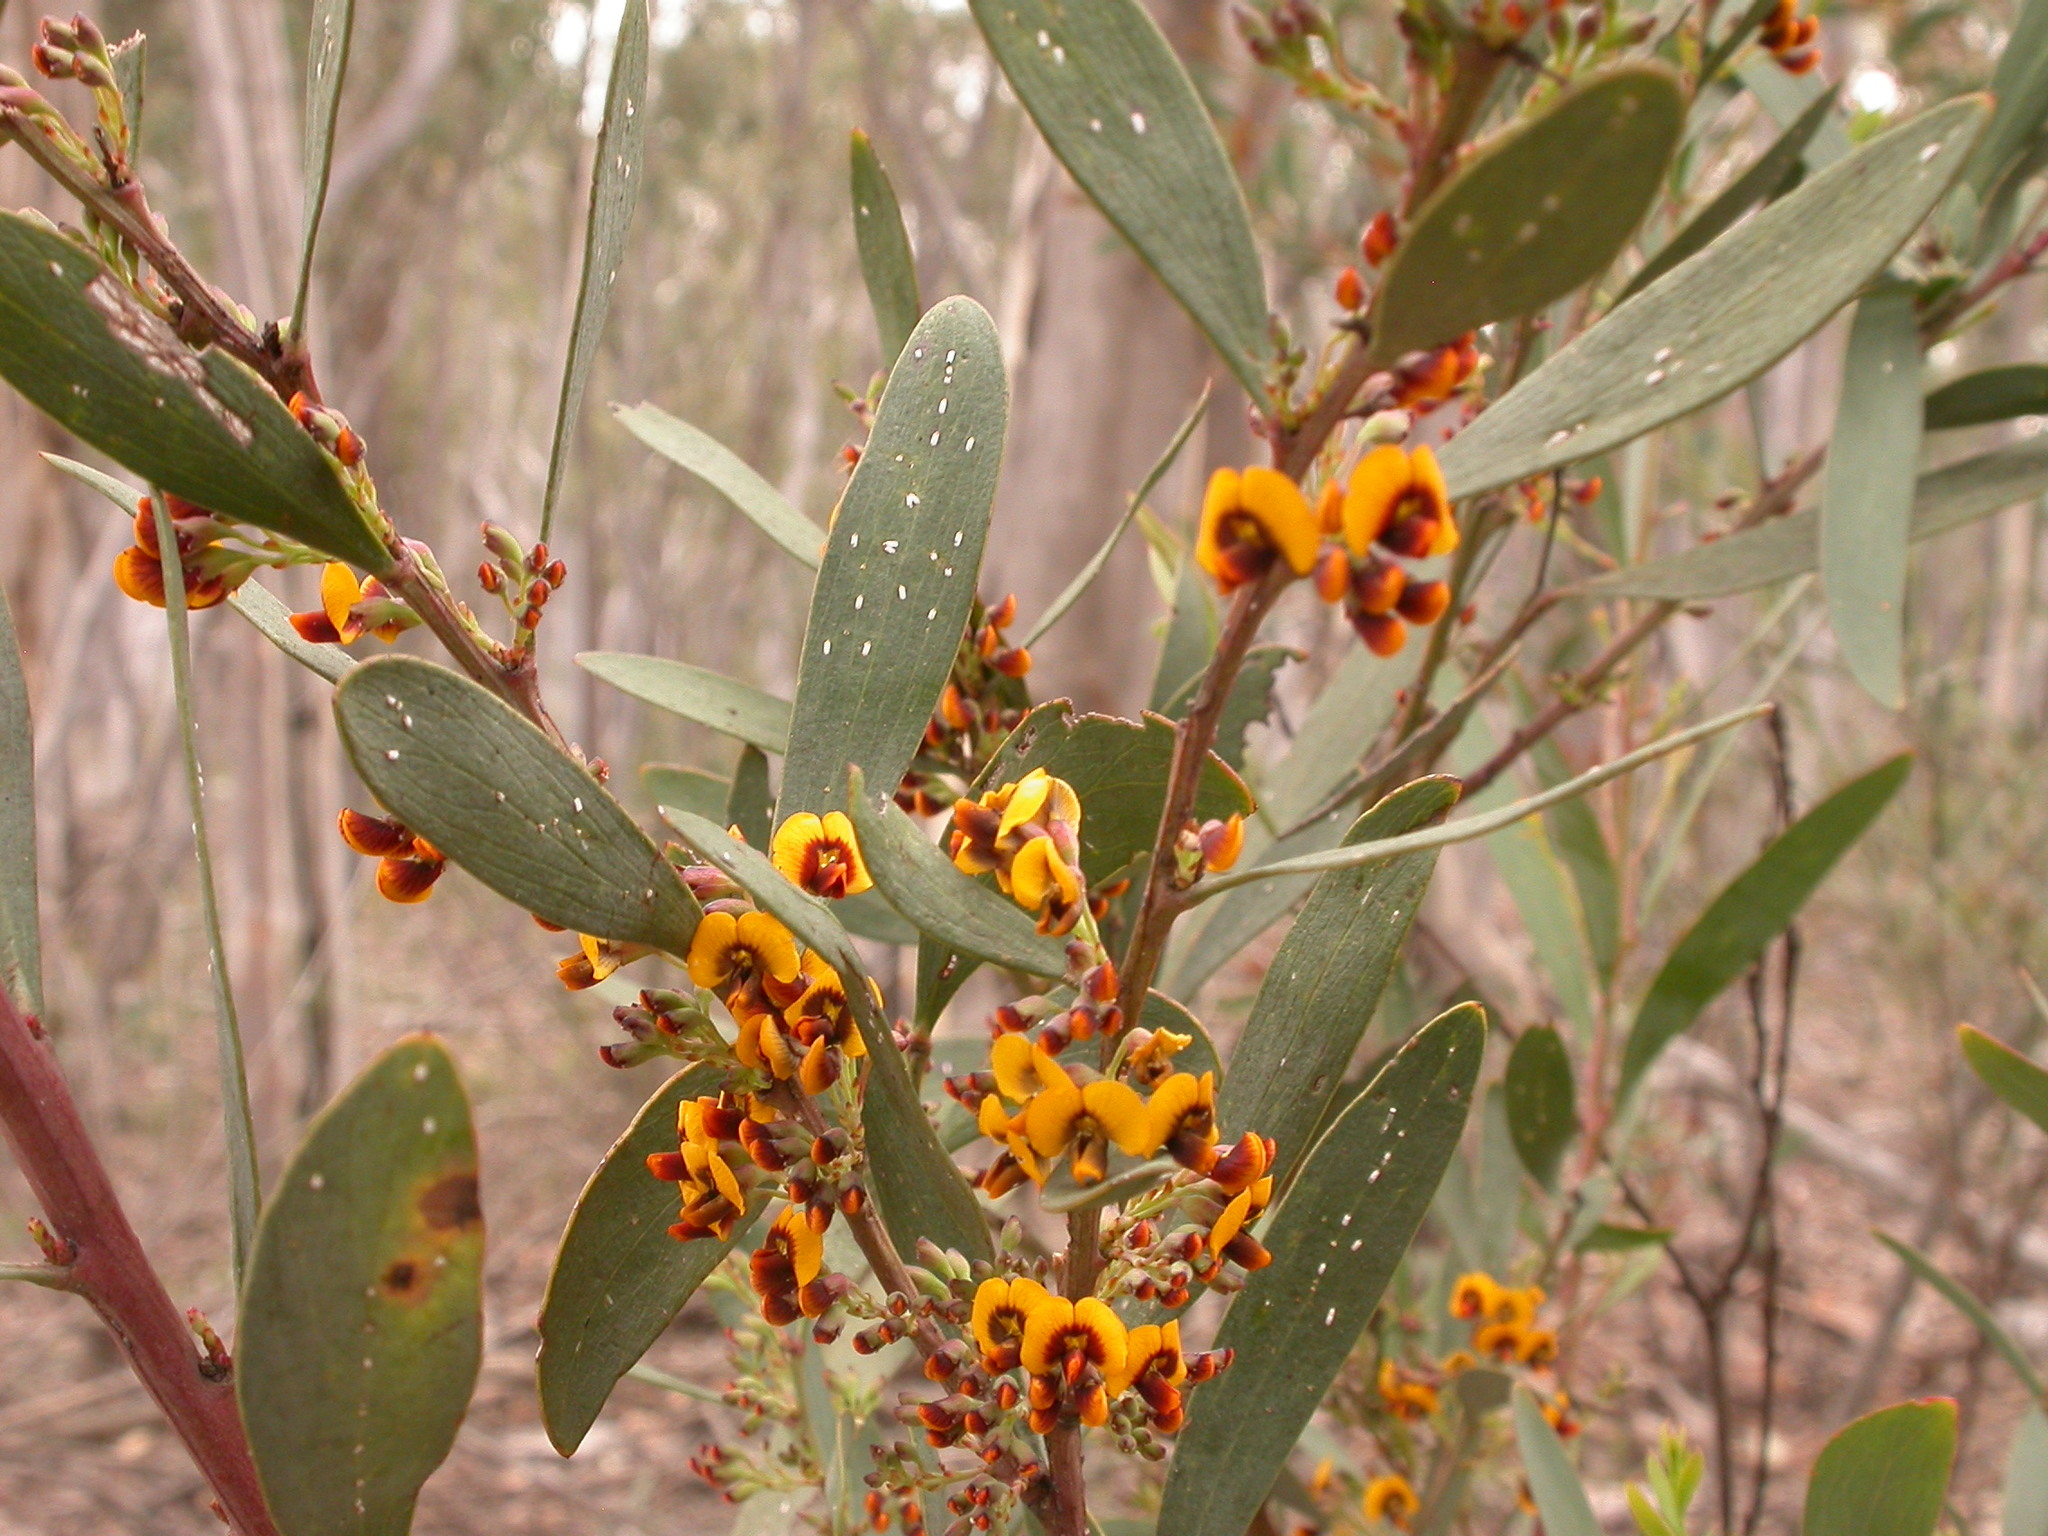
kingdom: Plantae
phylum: Tracheophyta
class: Magnoliopsida
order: Fabales
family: Fabaceae
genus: Daviesia
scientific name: Daviesia mimosoides
